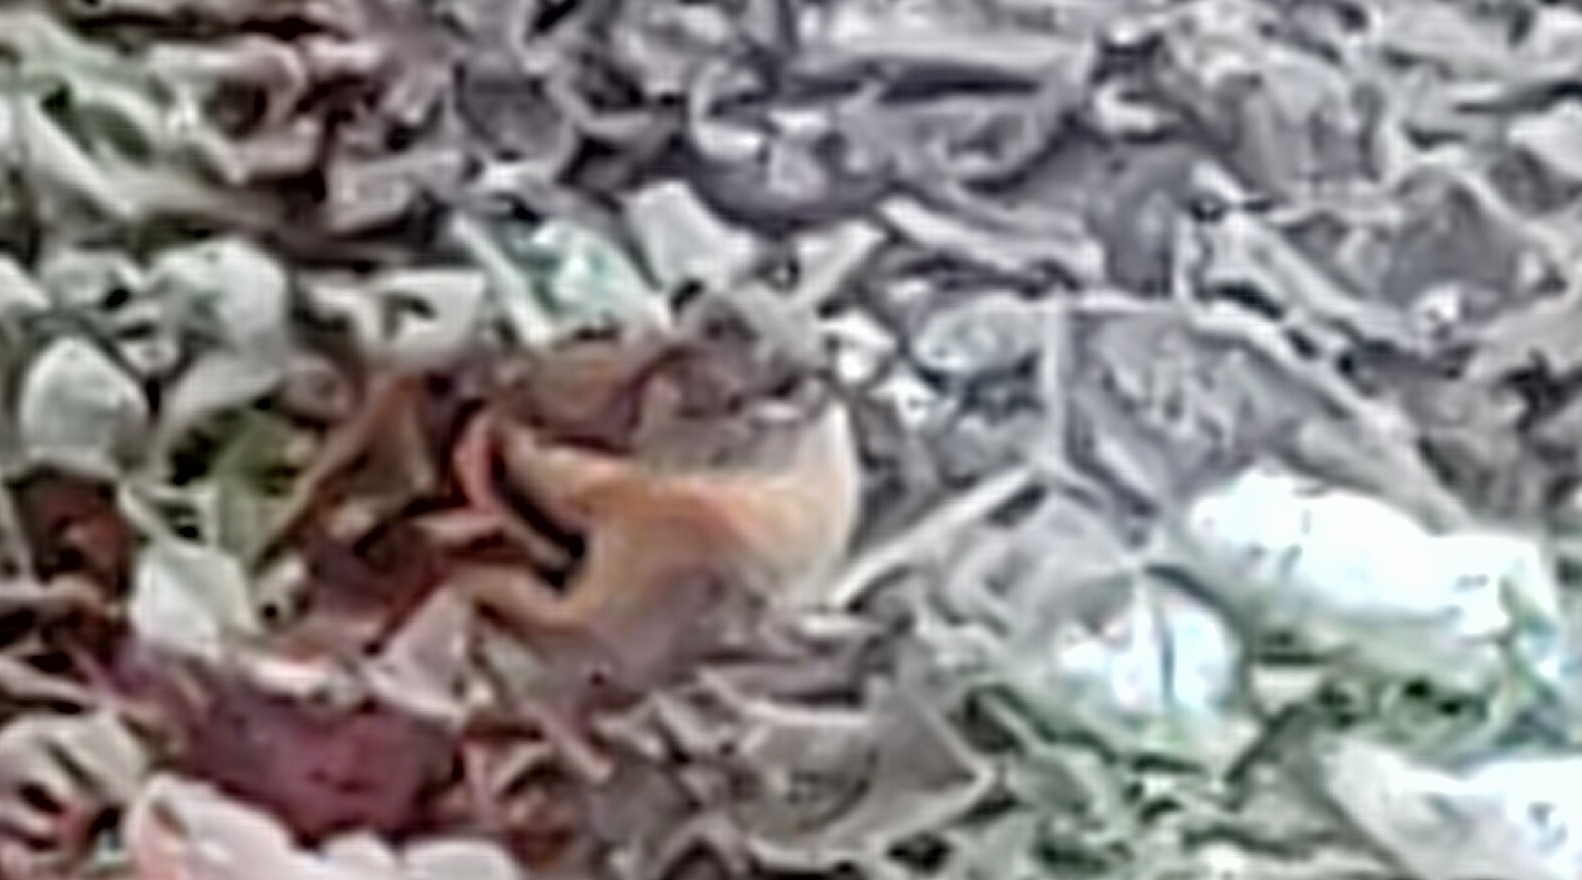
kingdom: Animalia
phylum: Chordata
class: Aves
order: Passeriformes
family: Fringillidae
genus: Fringilla
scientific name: Fringilla montifringilla
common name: Brambling
